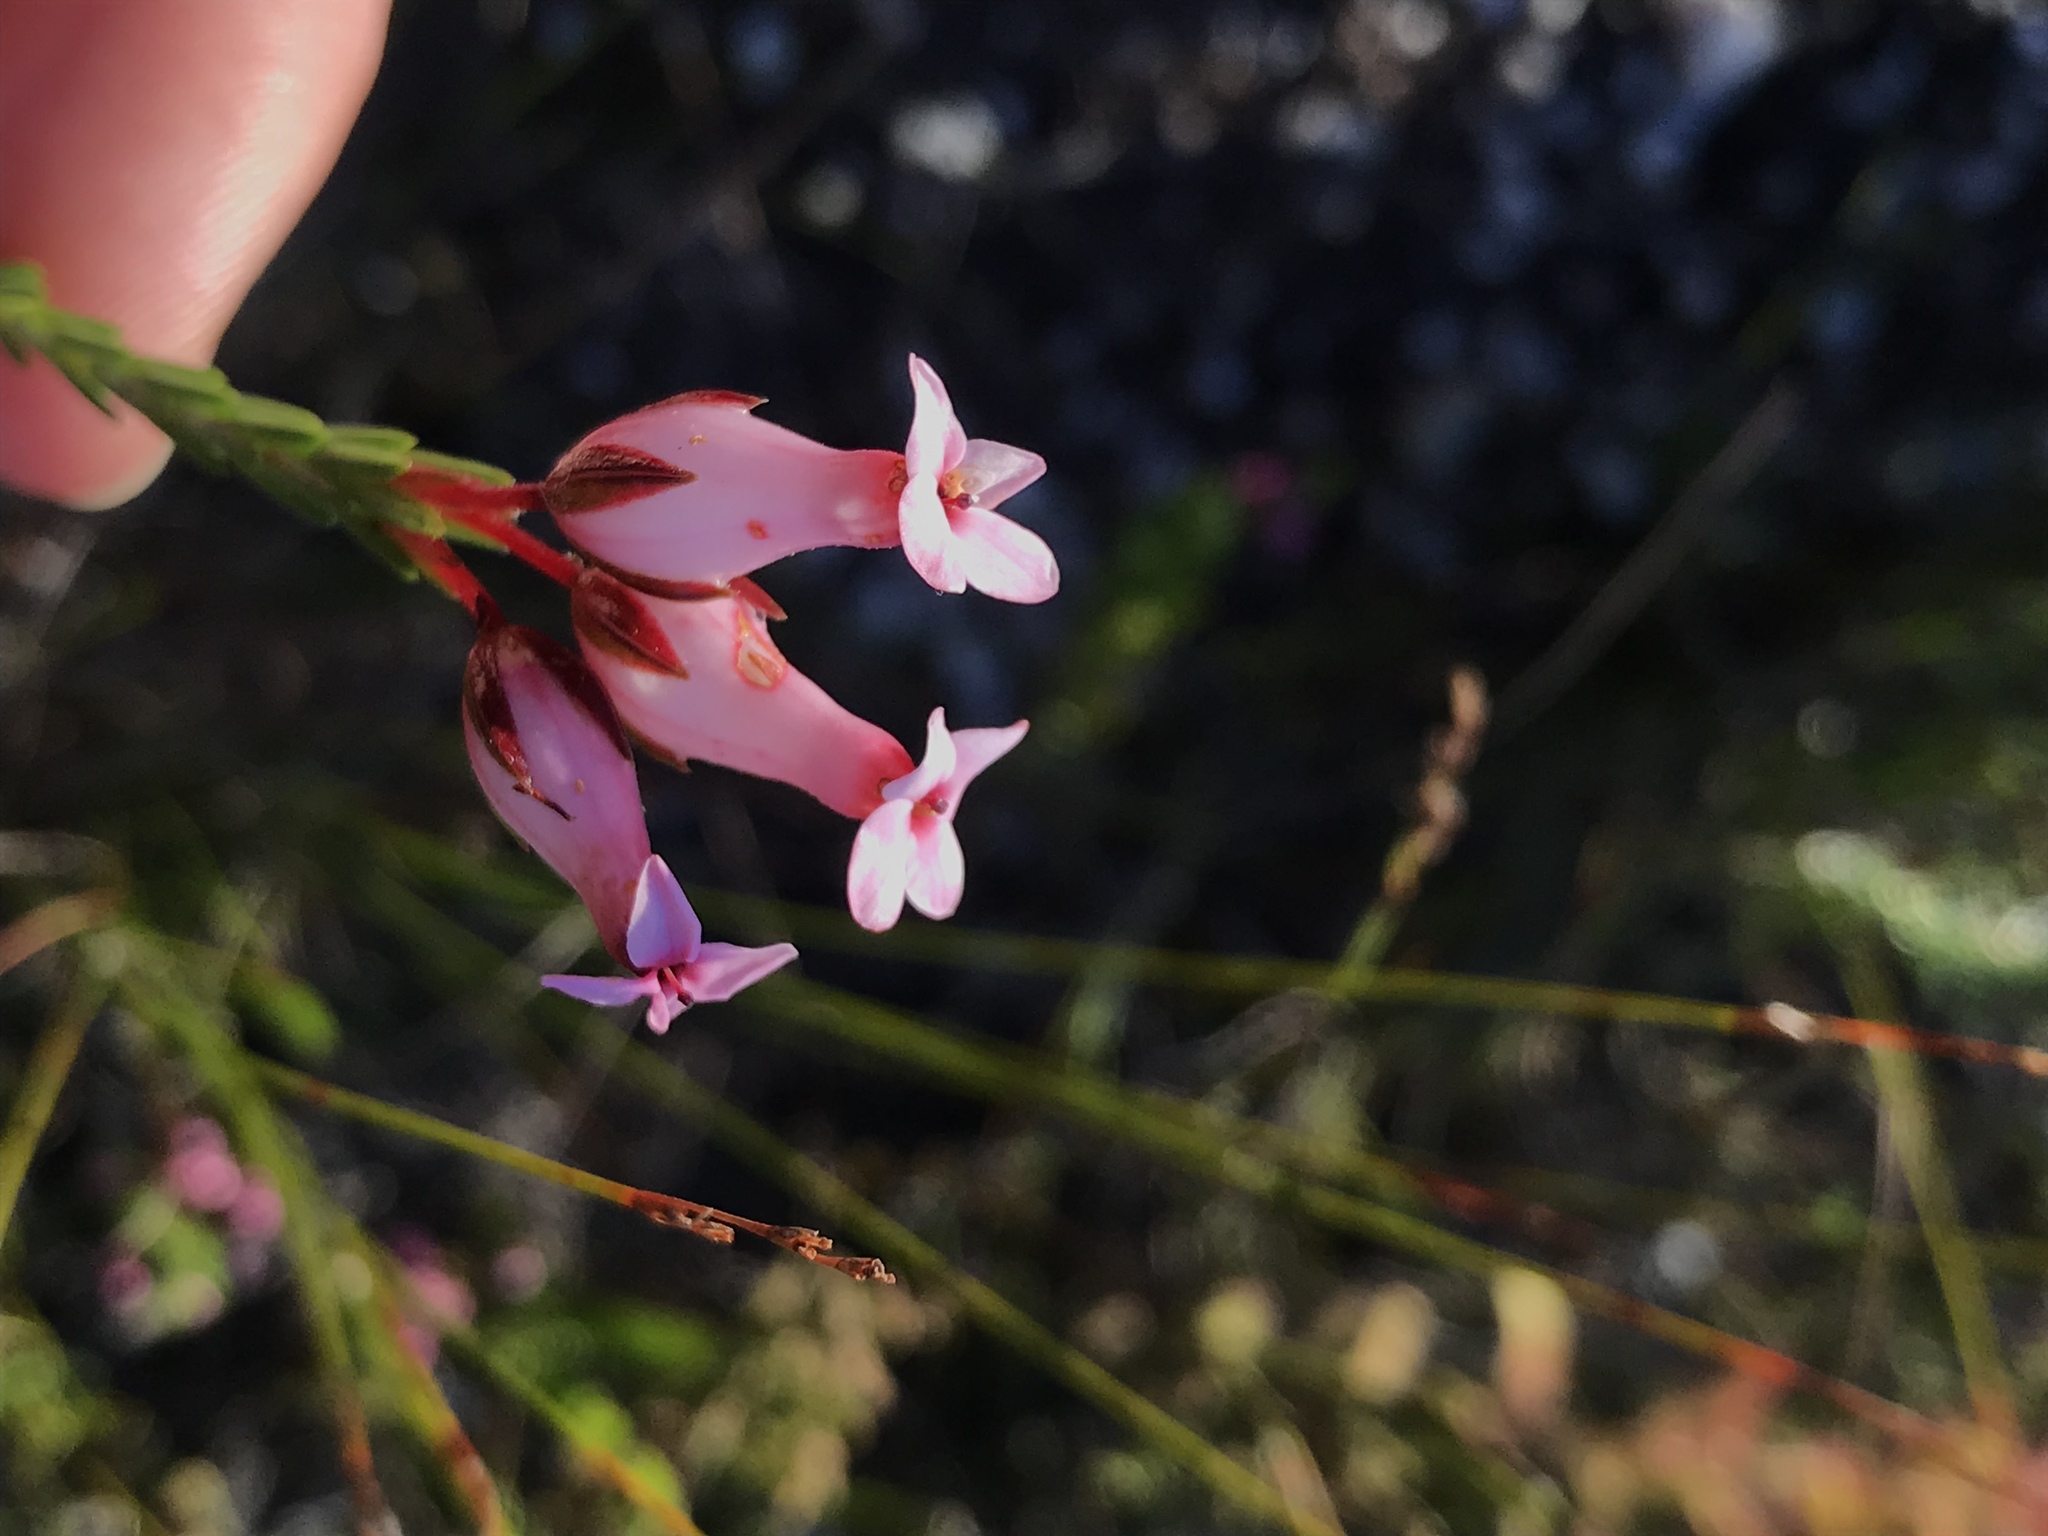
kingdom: Plantae
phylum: Tracheophyta
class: Magnoliopsida
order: Ericales
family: Ericaceae
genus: Erica
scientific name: Erica irbyana
